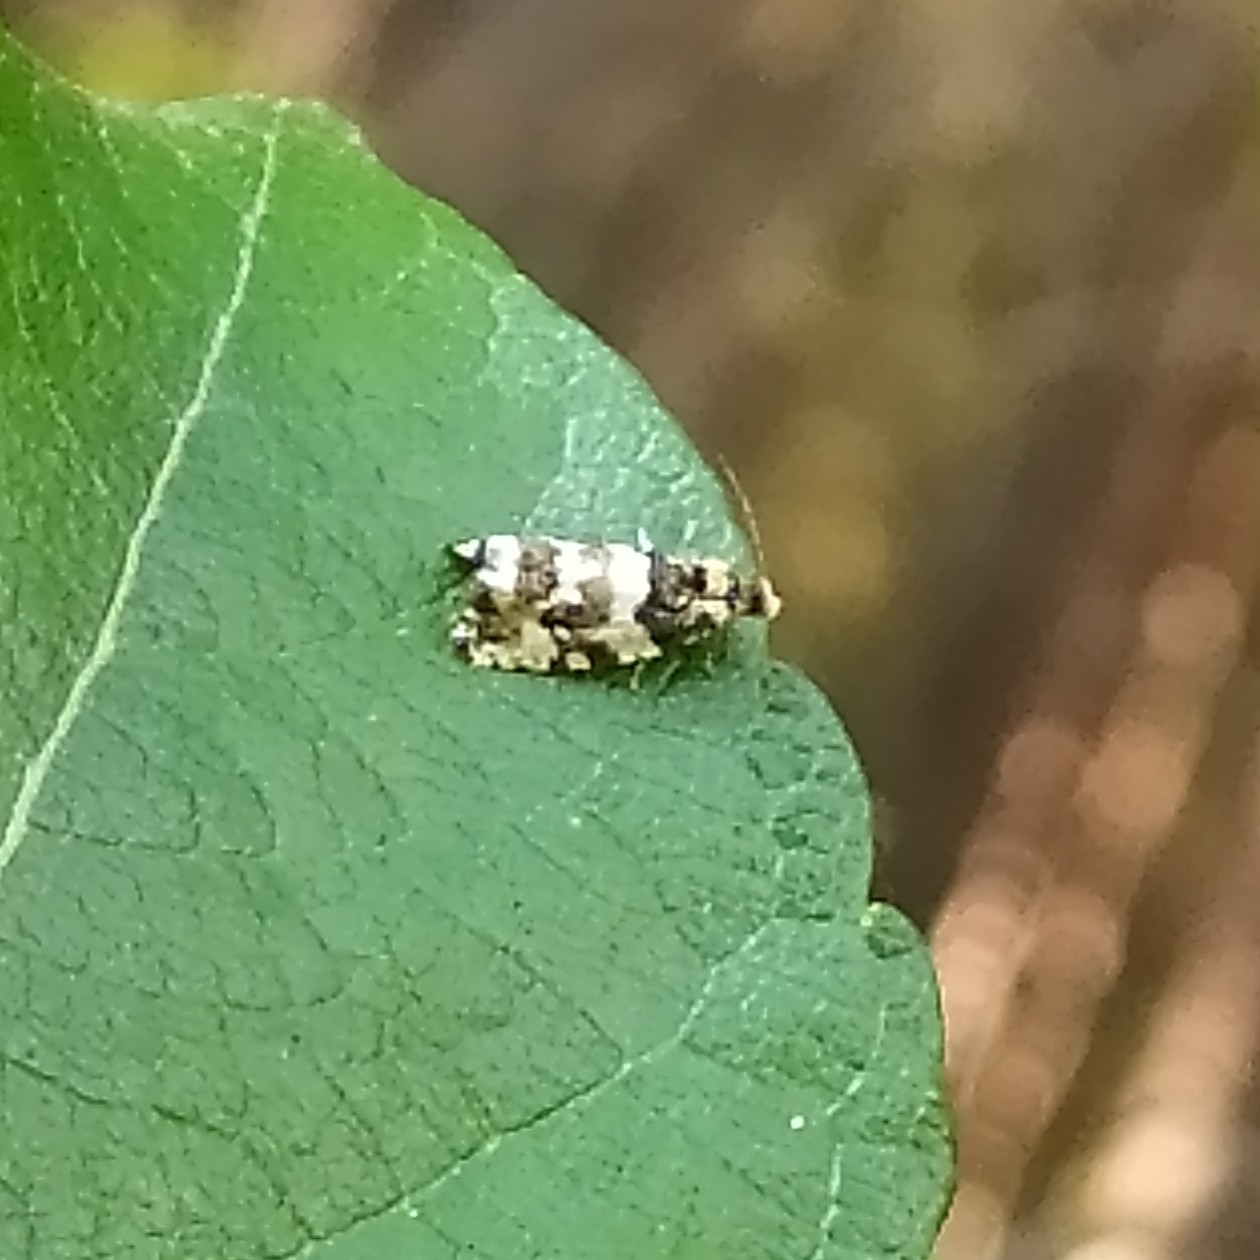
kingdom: Animalia
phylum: Arthropoda
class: Insecta
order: Lepidoptera
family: Tortricidae
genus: Argyroploce
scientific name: Argyroploce bipunctana
